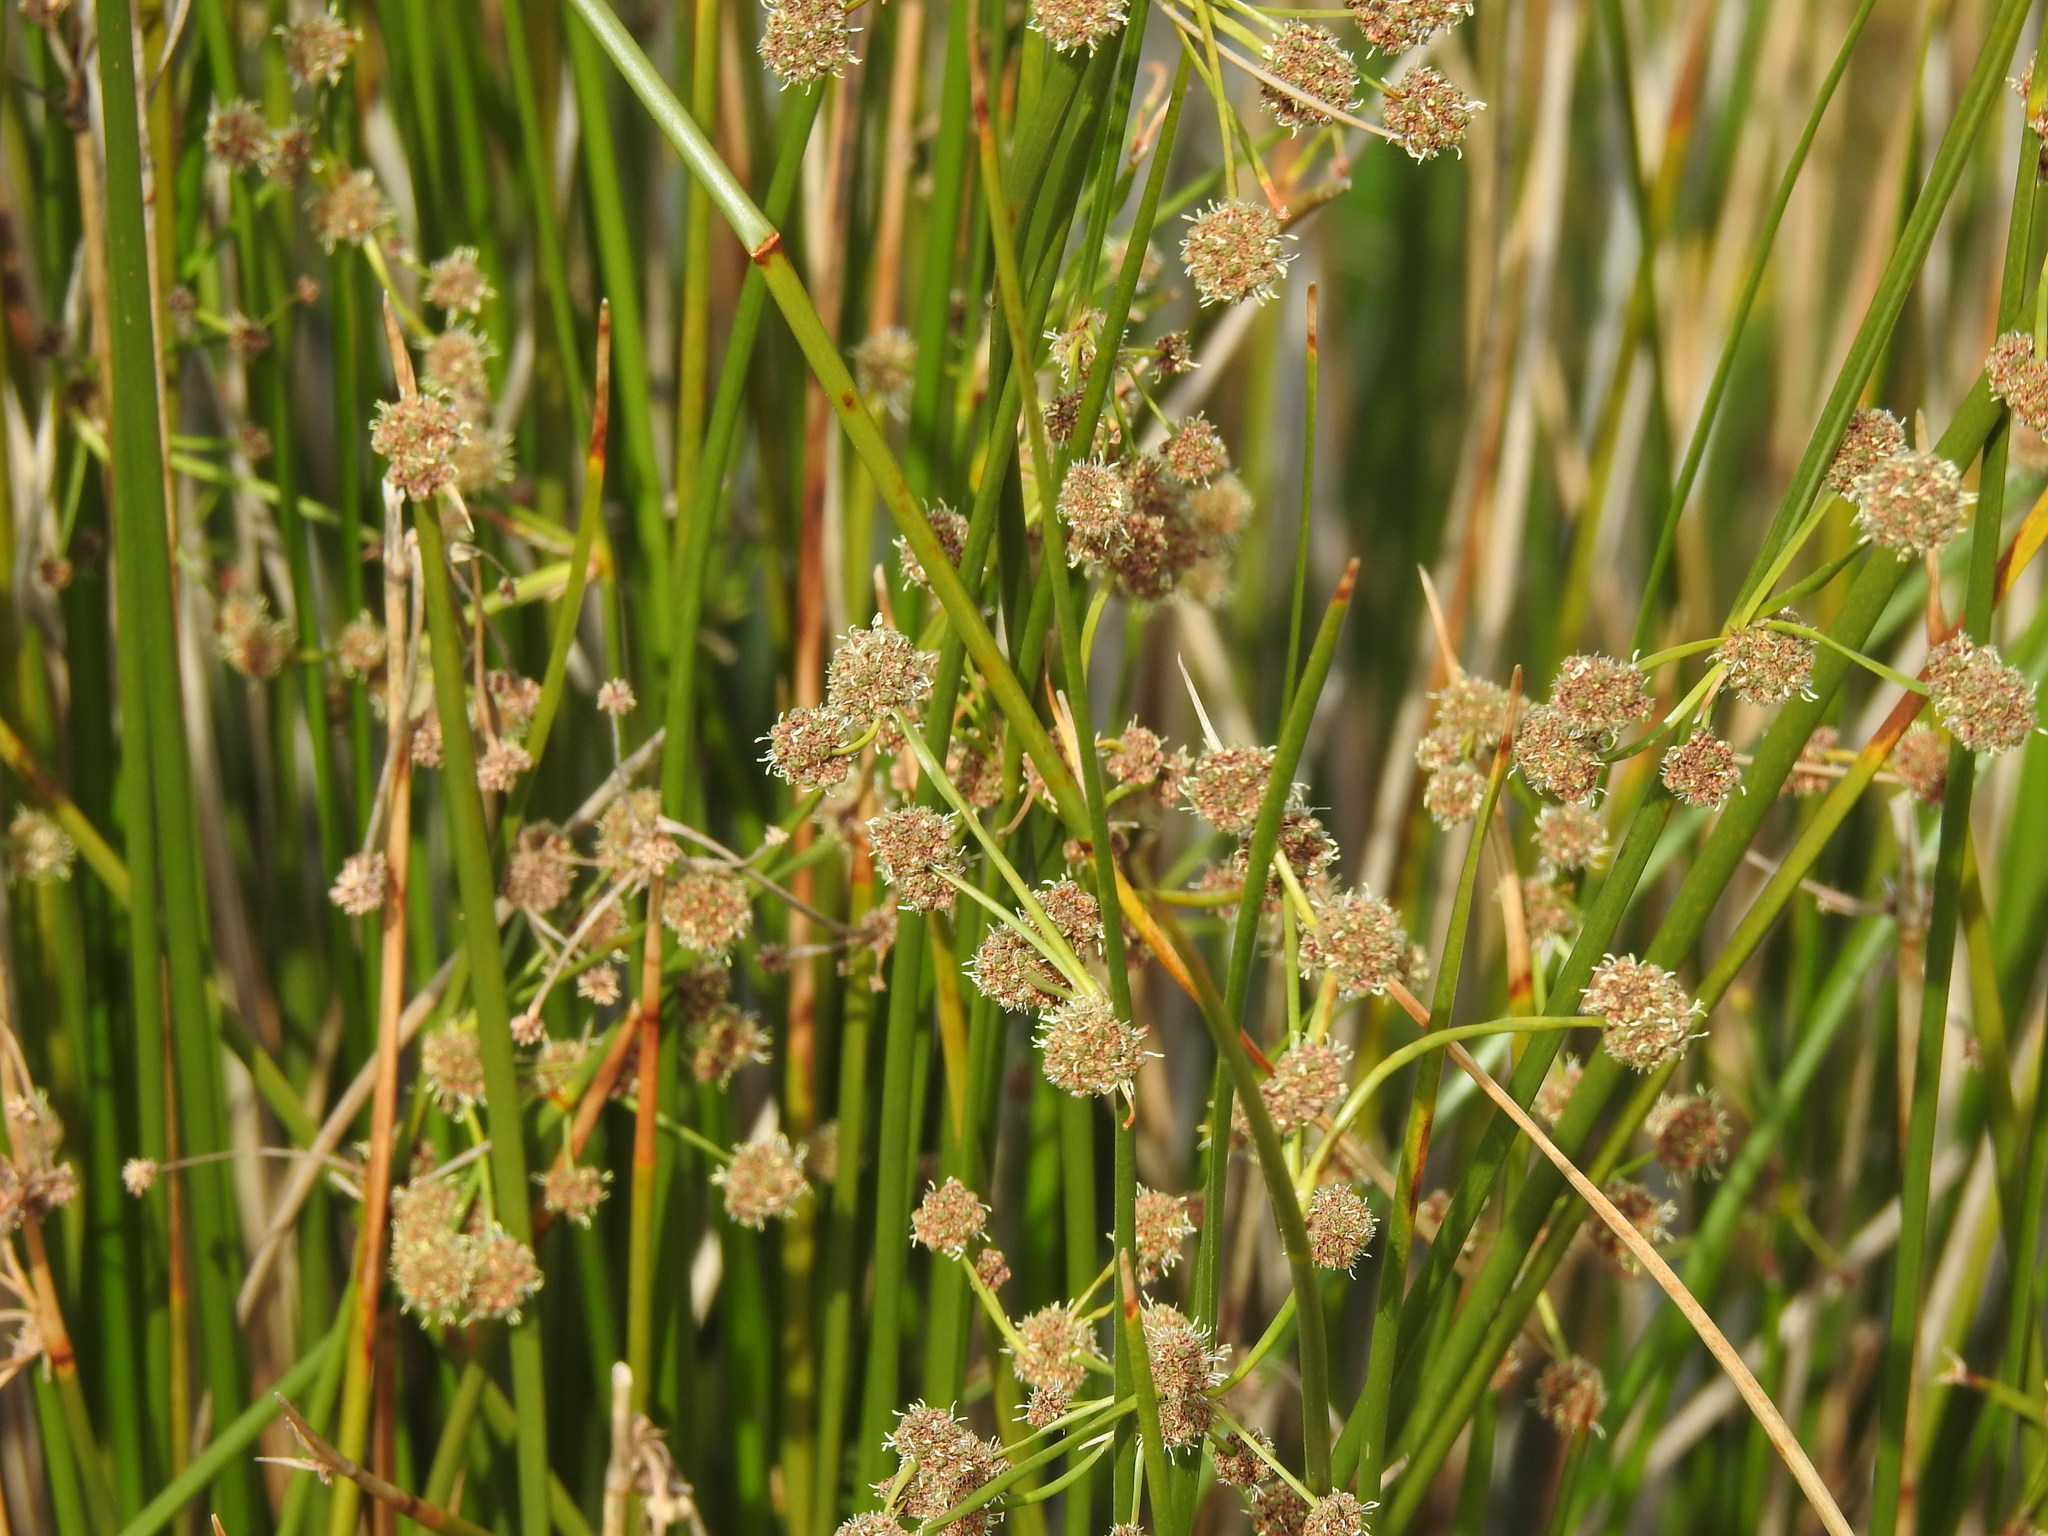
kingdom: Plantae
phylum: Tracheophyta
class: Liliopsida
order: Poales
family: Cyperaceae
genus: Scirpoides
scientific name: Scirpoides holoschoenus
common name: Round-headed club-rush
